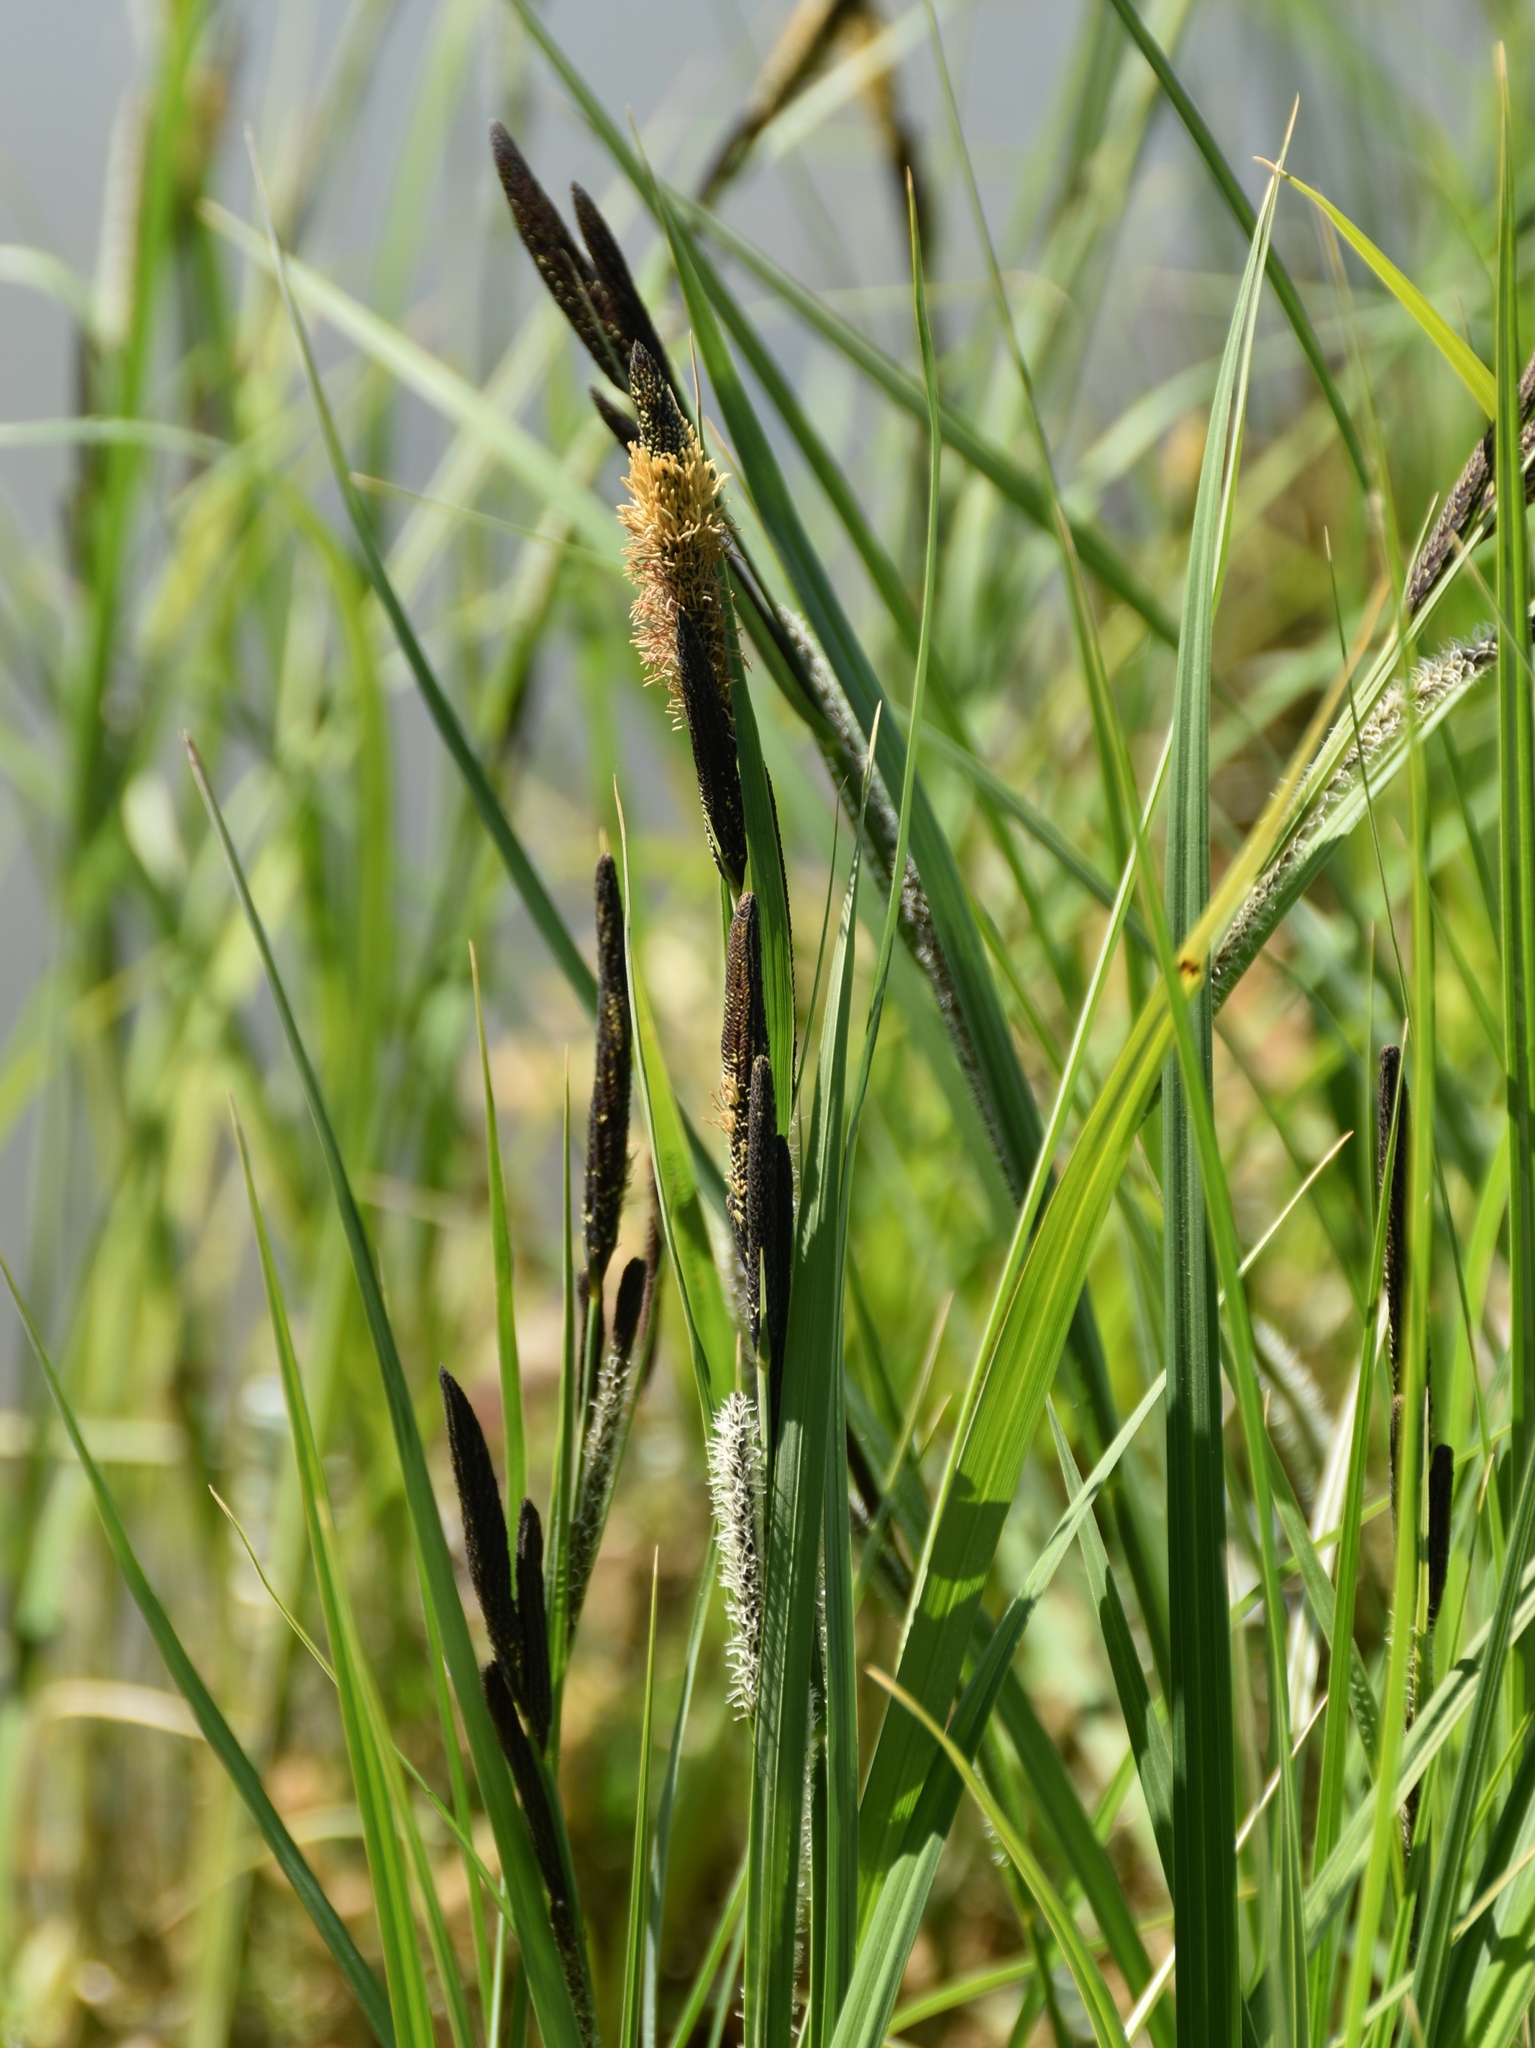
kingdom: Plantae
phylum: Tracheophyta
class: Liliopsida
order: Poales
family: Cyperaceae
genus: Carex
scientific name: Carex acutiformis
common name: Lesser pond-sedge
